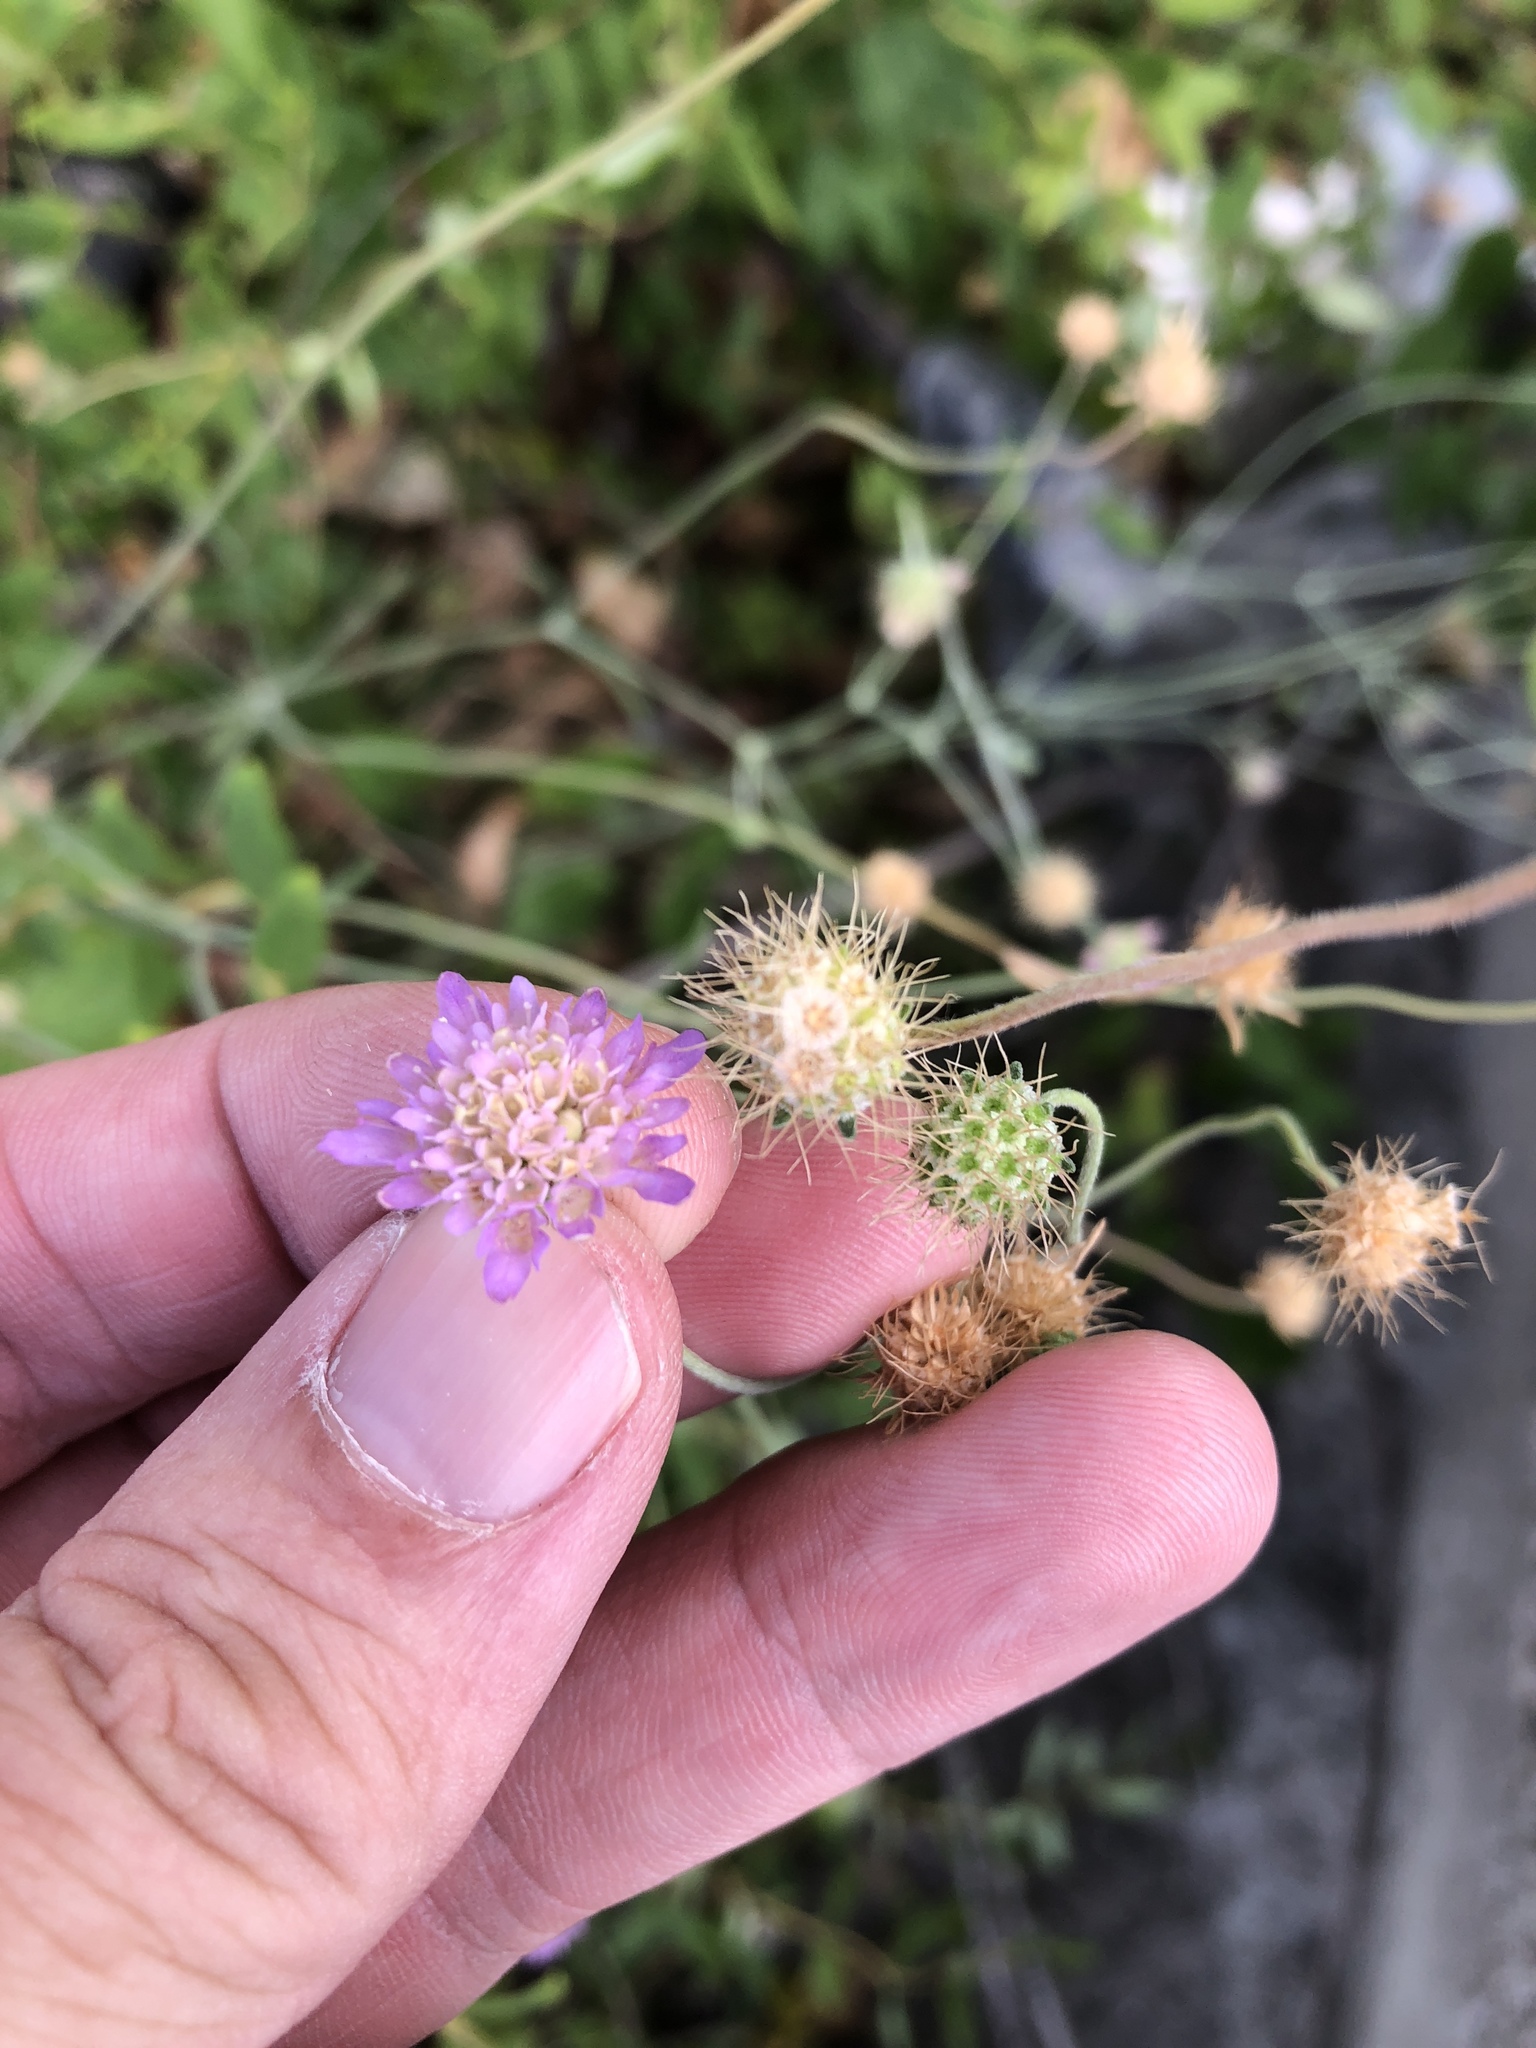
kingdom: Plantae
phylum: Tracheophyta
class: Magnoliopsida
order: Dipsacales
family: Caprifoliaceae
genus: Sixalix
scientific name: Sixalix atropurpurea
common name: Sweet scabious
